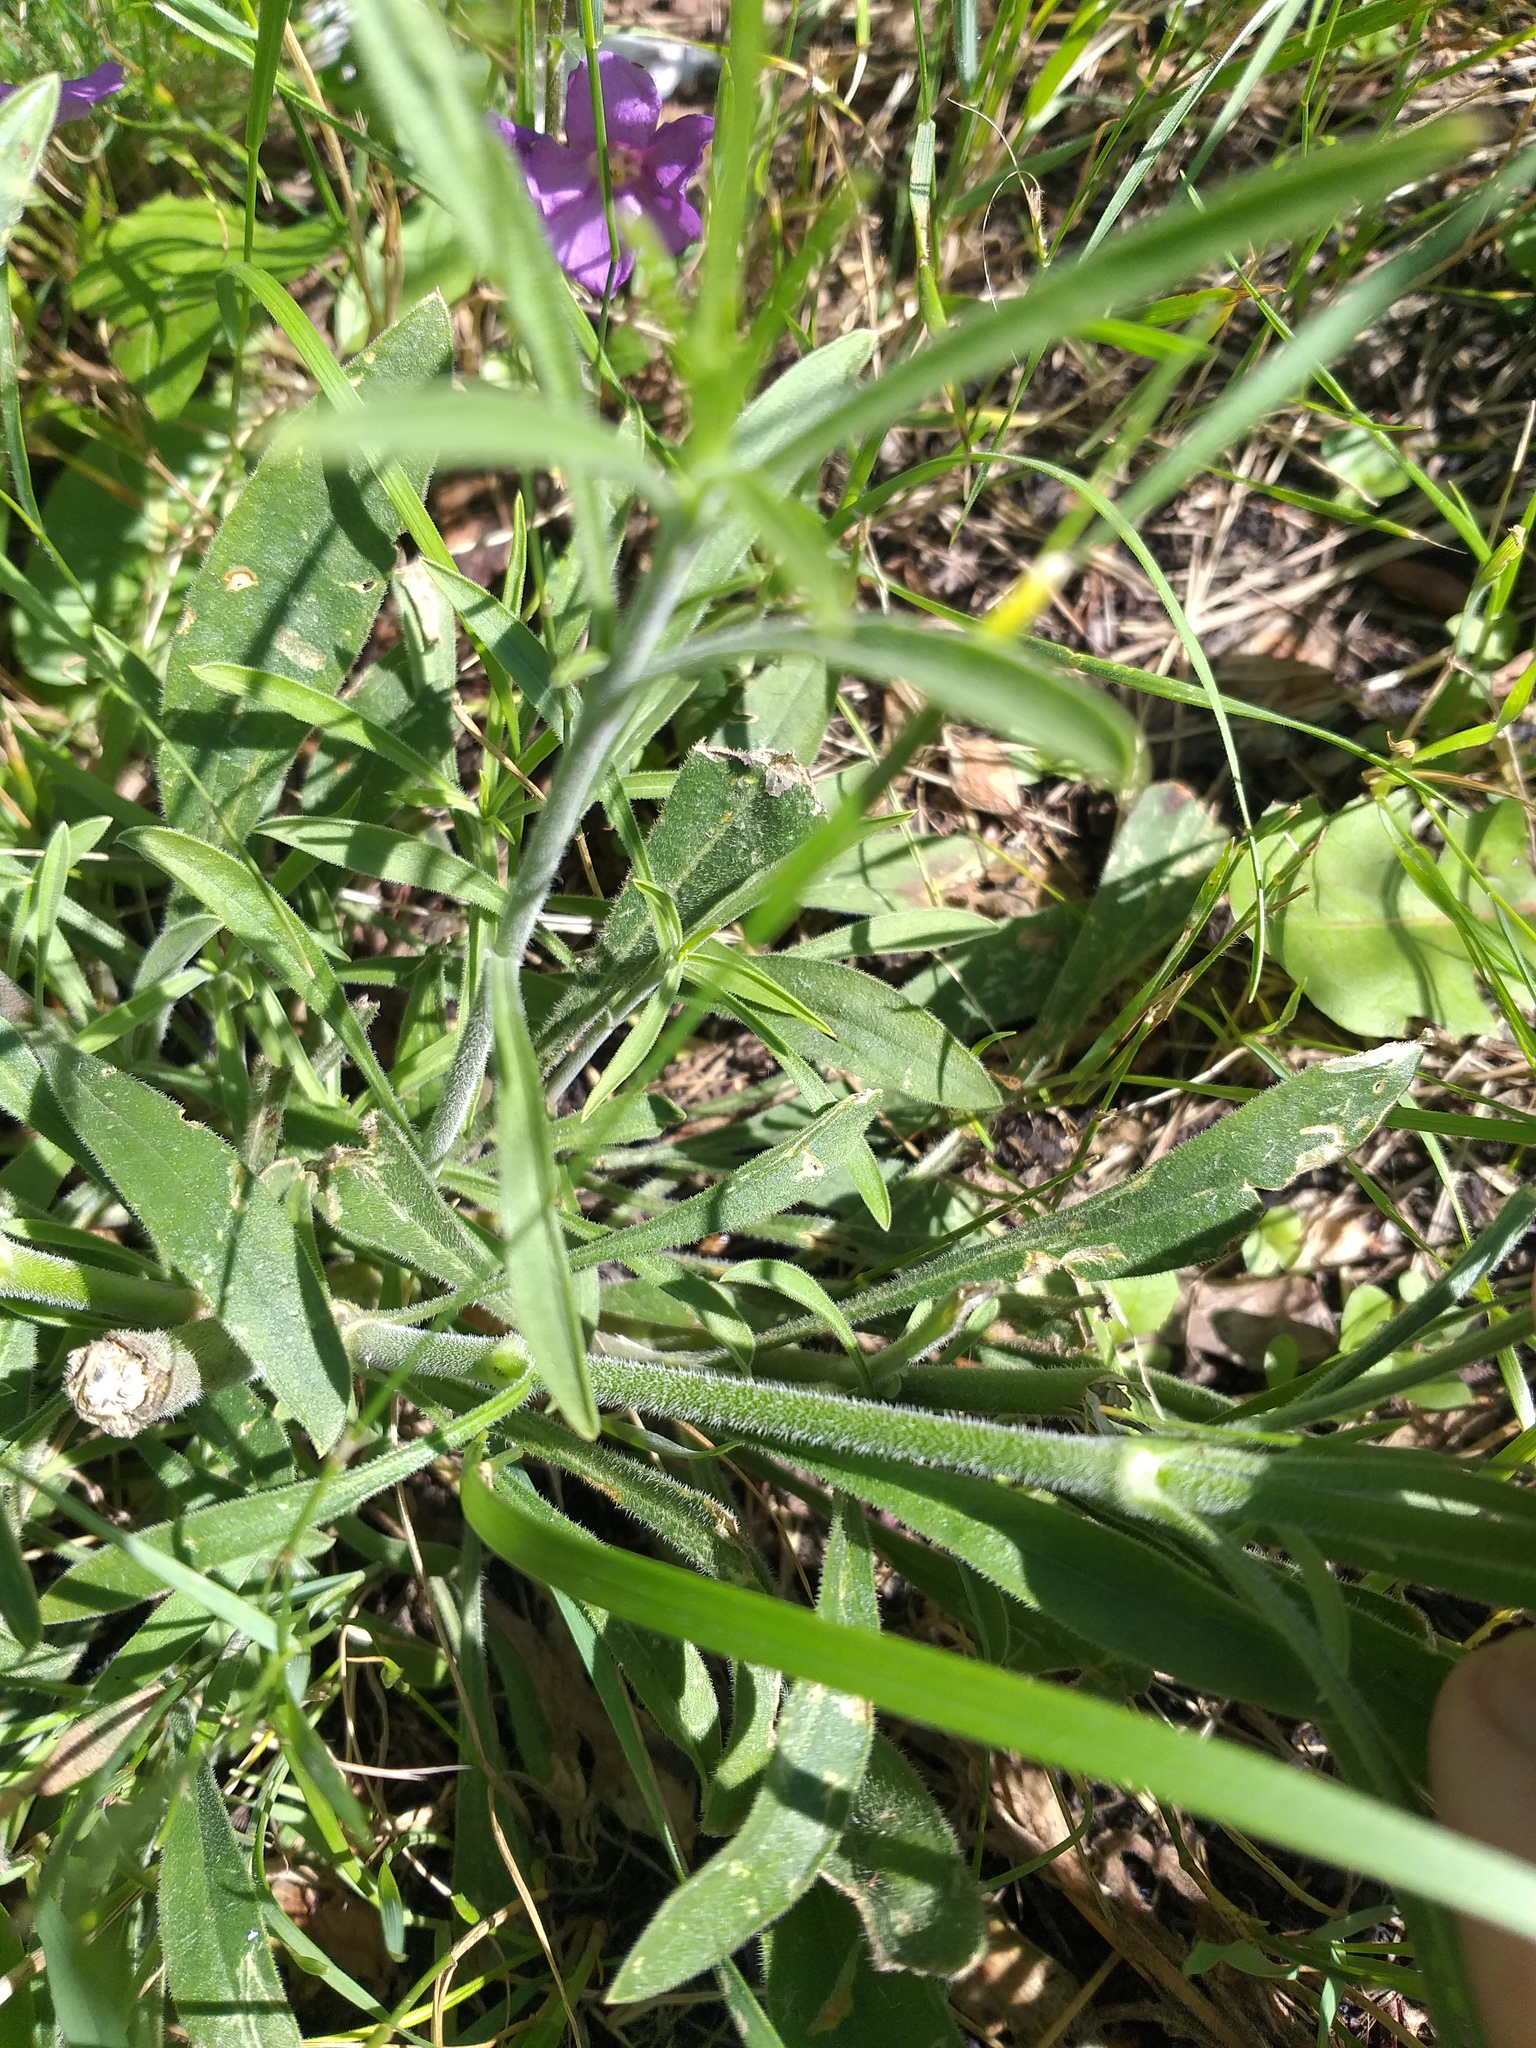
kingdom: Plantae
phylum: Tracheophyta
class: Magnoliopsida
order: Caryophyllales
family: Caryophyllaceae
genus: Silene
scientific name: Silene wolgensis
